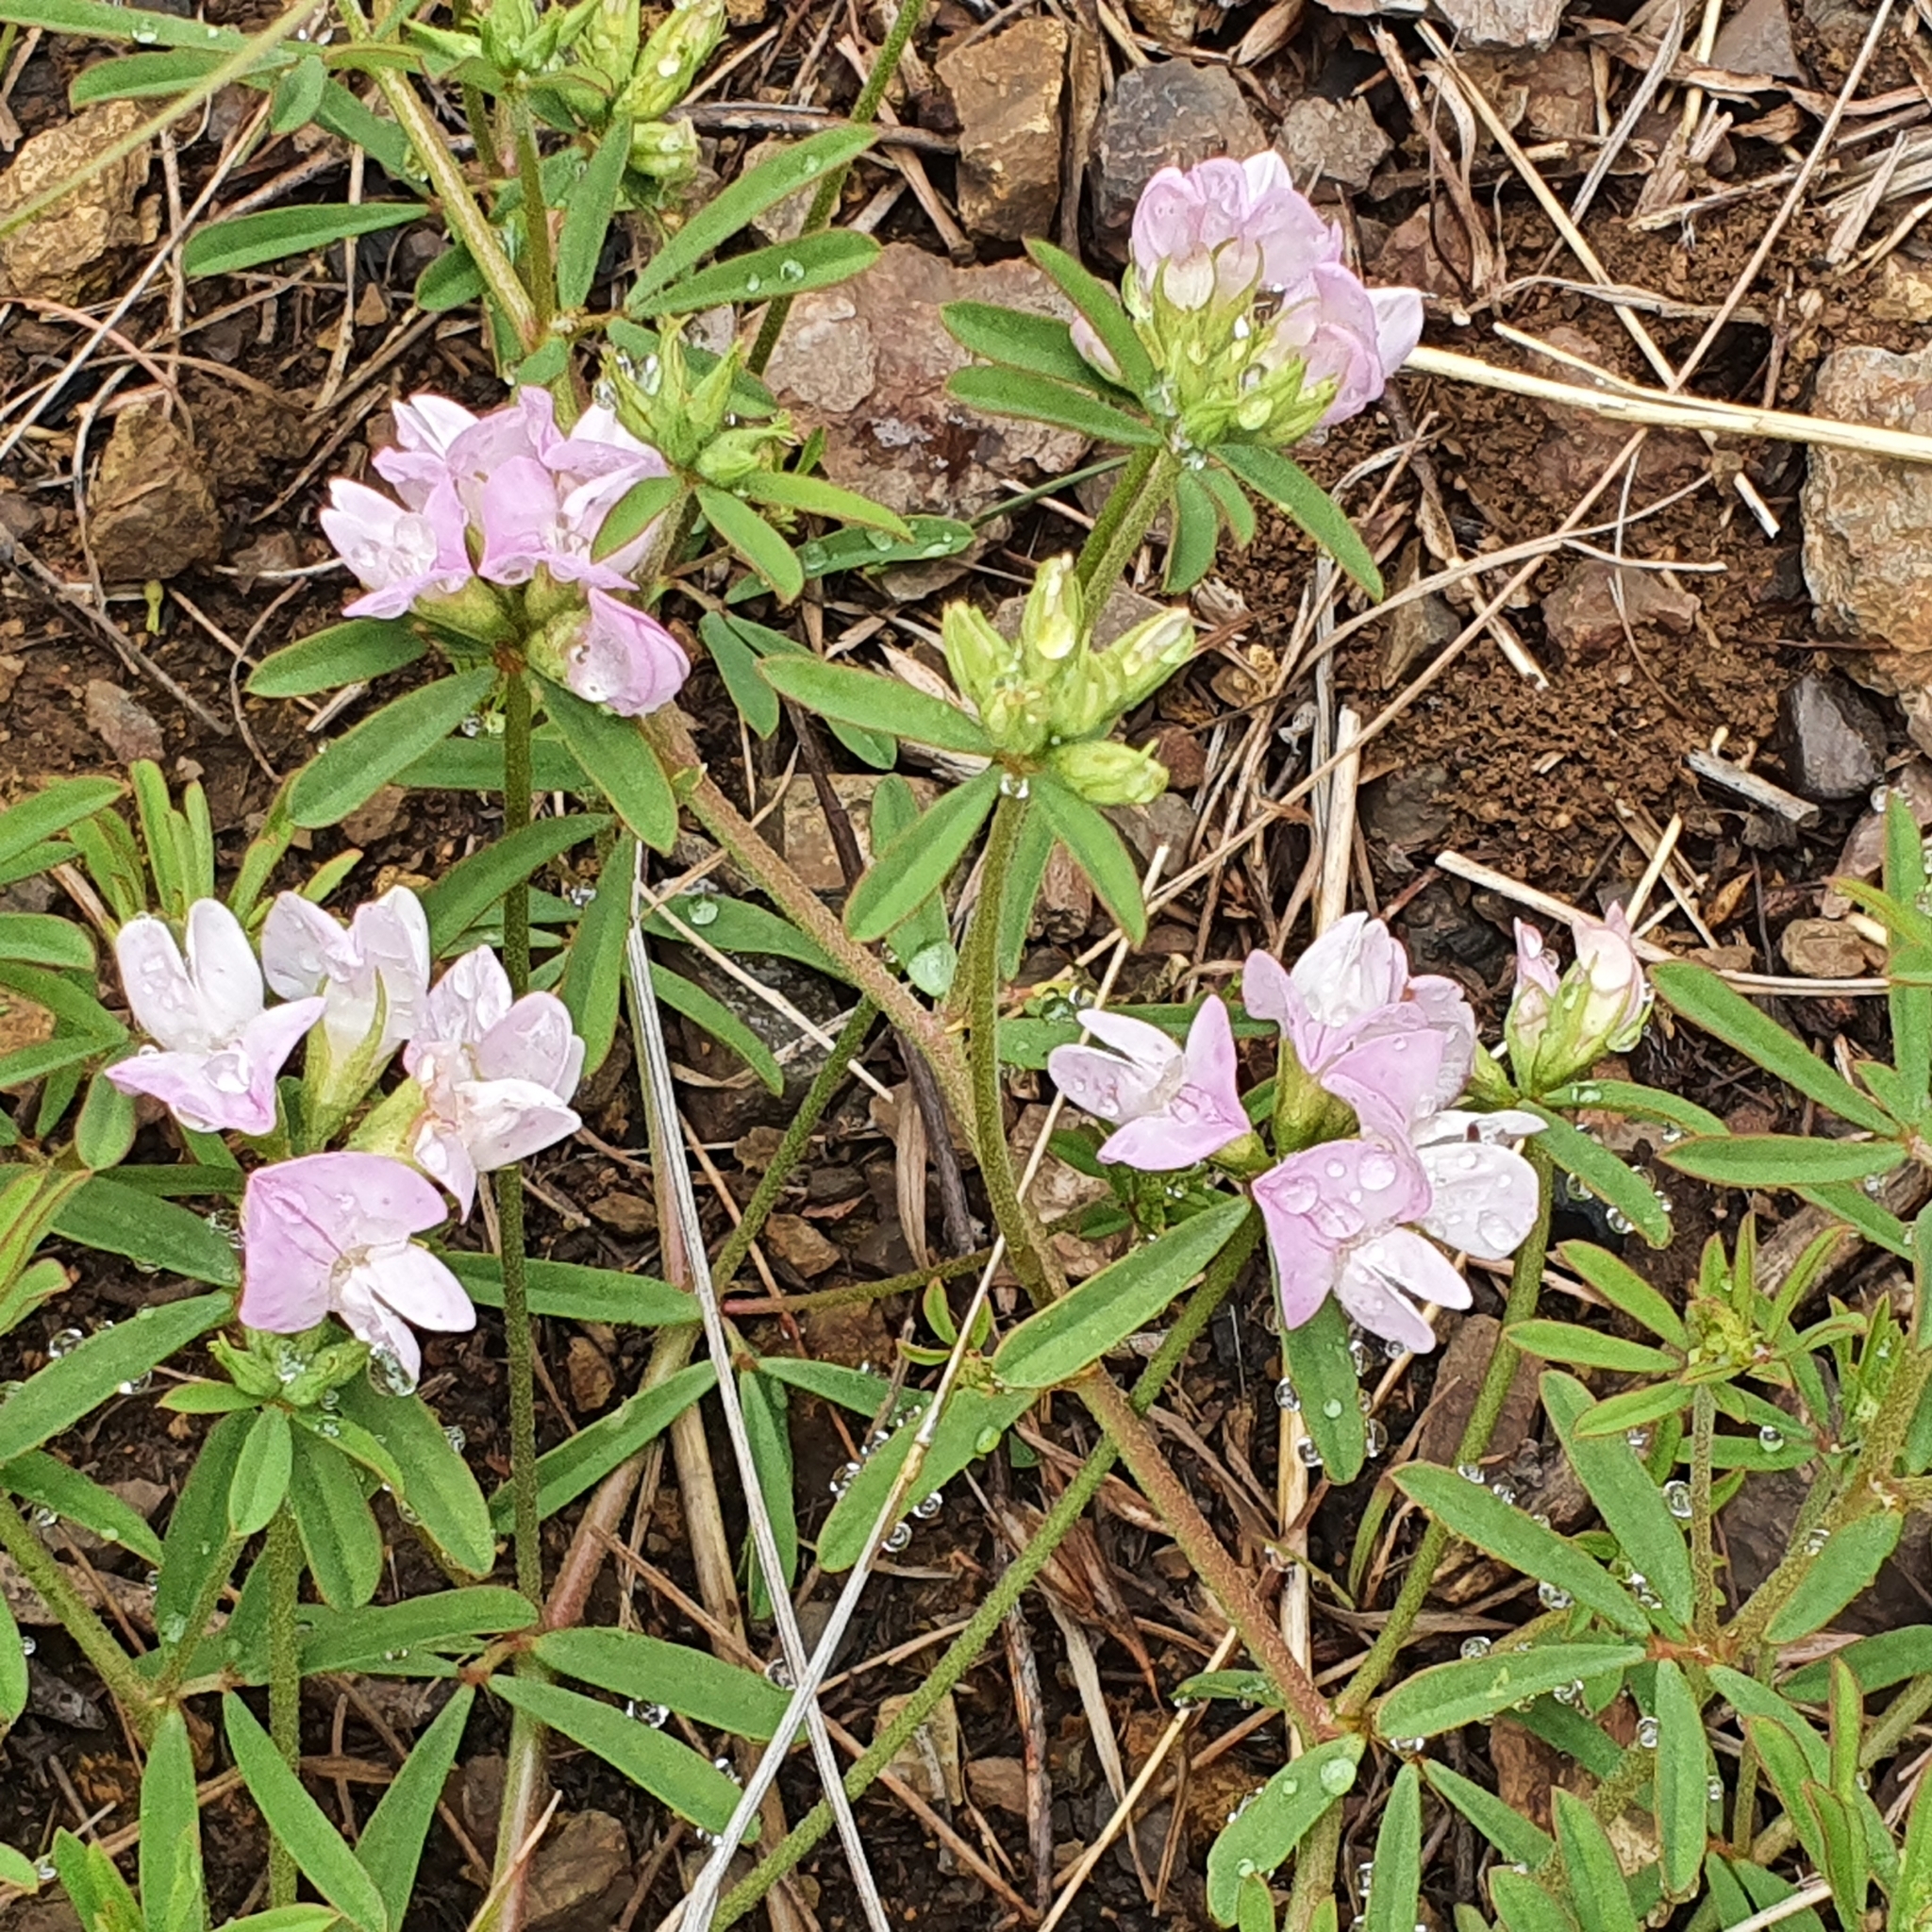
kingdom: Plantae
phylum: Tracheophyta
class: Magnoliopsida
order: Fabales
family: Fabaceae
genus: Lotus
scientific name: Lotus australis
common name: Australian trefoil
